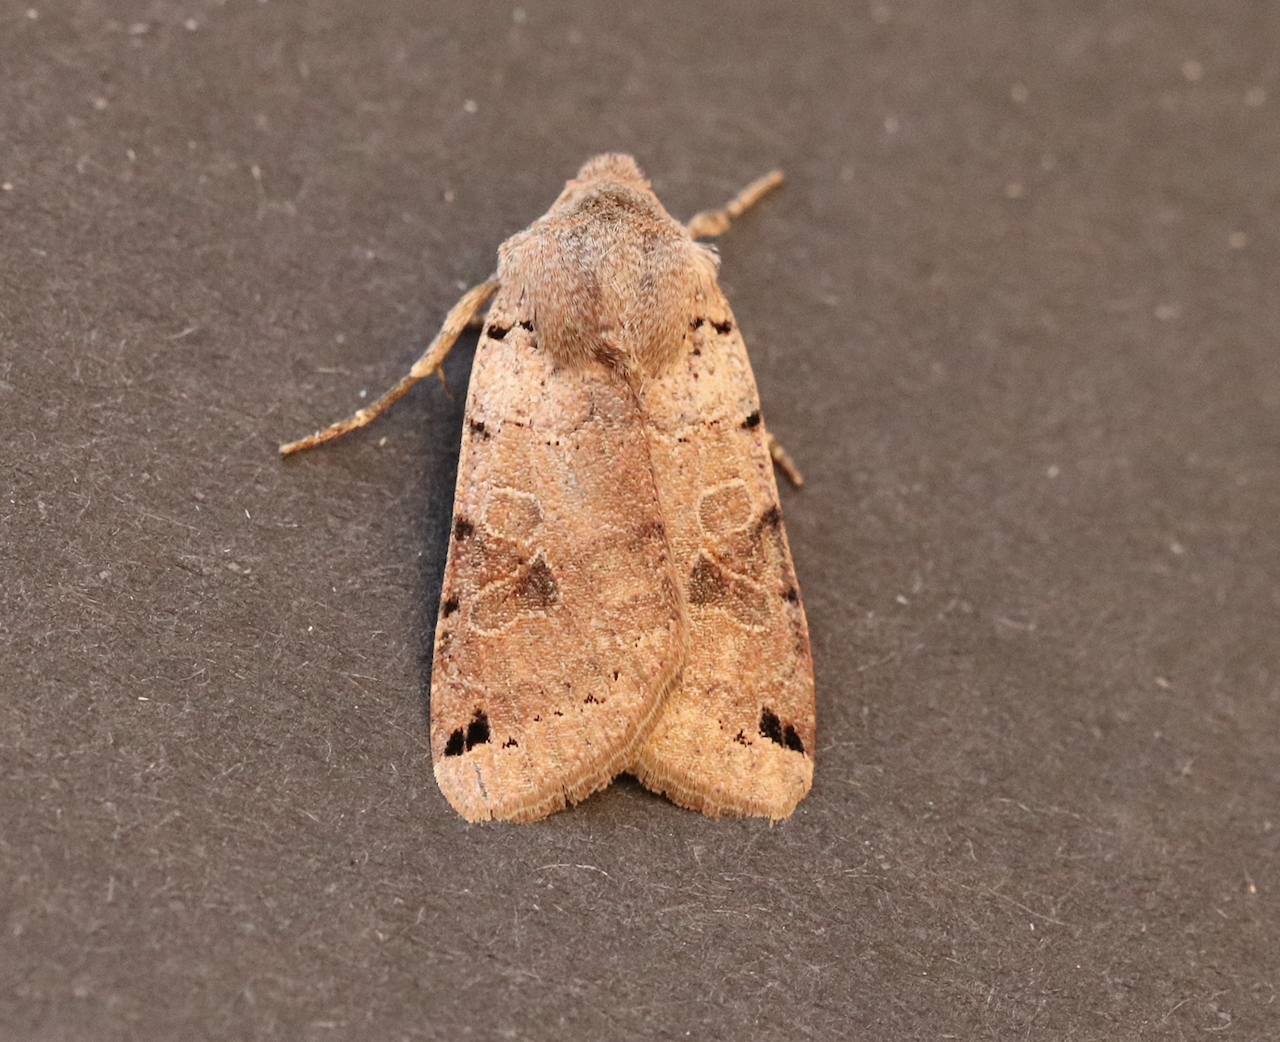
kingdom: Animalia
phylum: Arthropoda
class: Insecta
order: Lepidoptera
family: Noctuidae
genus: Agrochola
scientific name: Agrochola litura
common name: Brown-spot pinion
